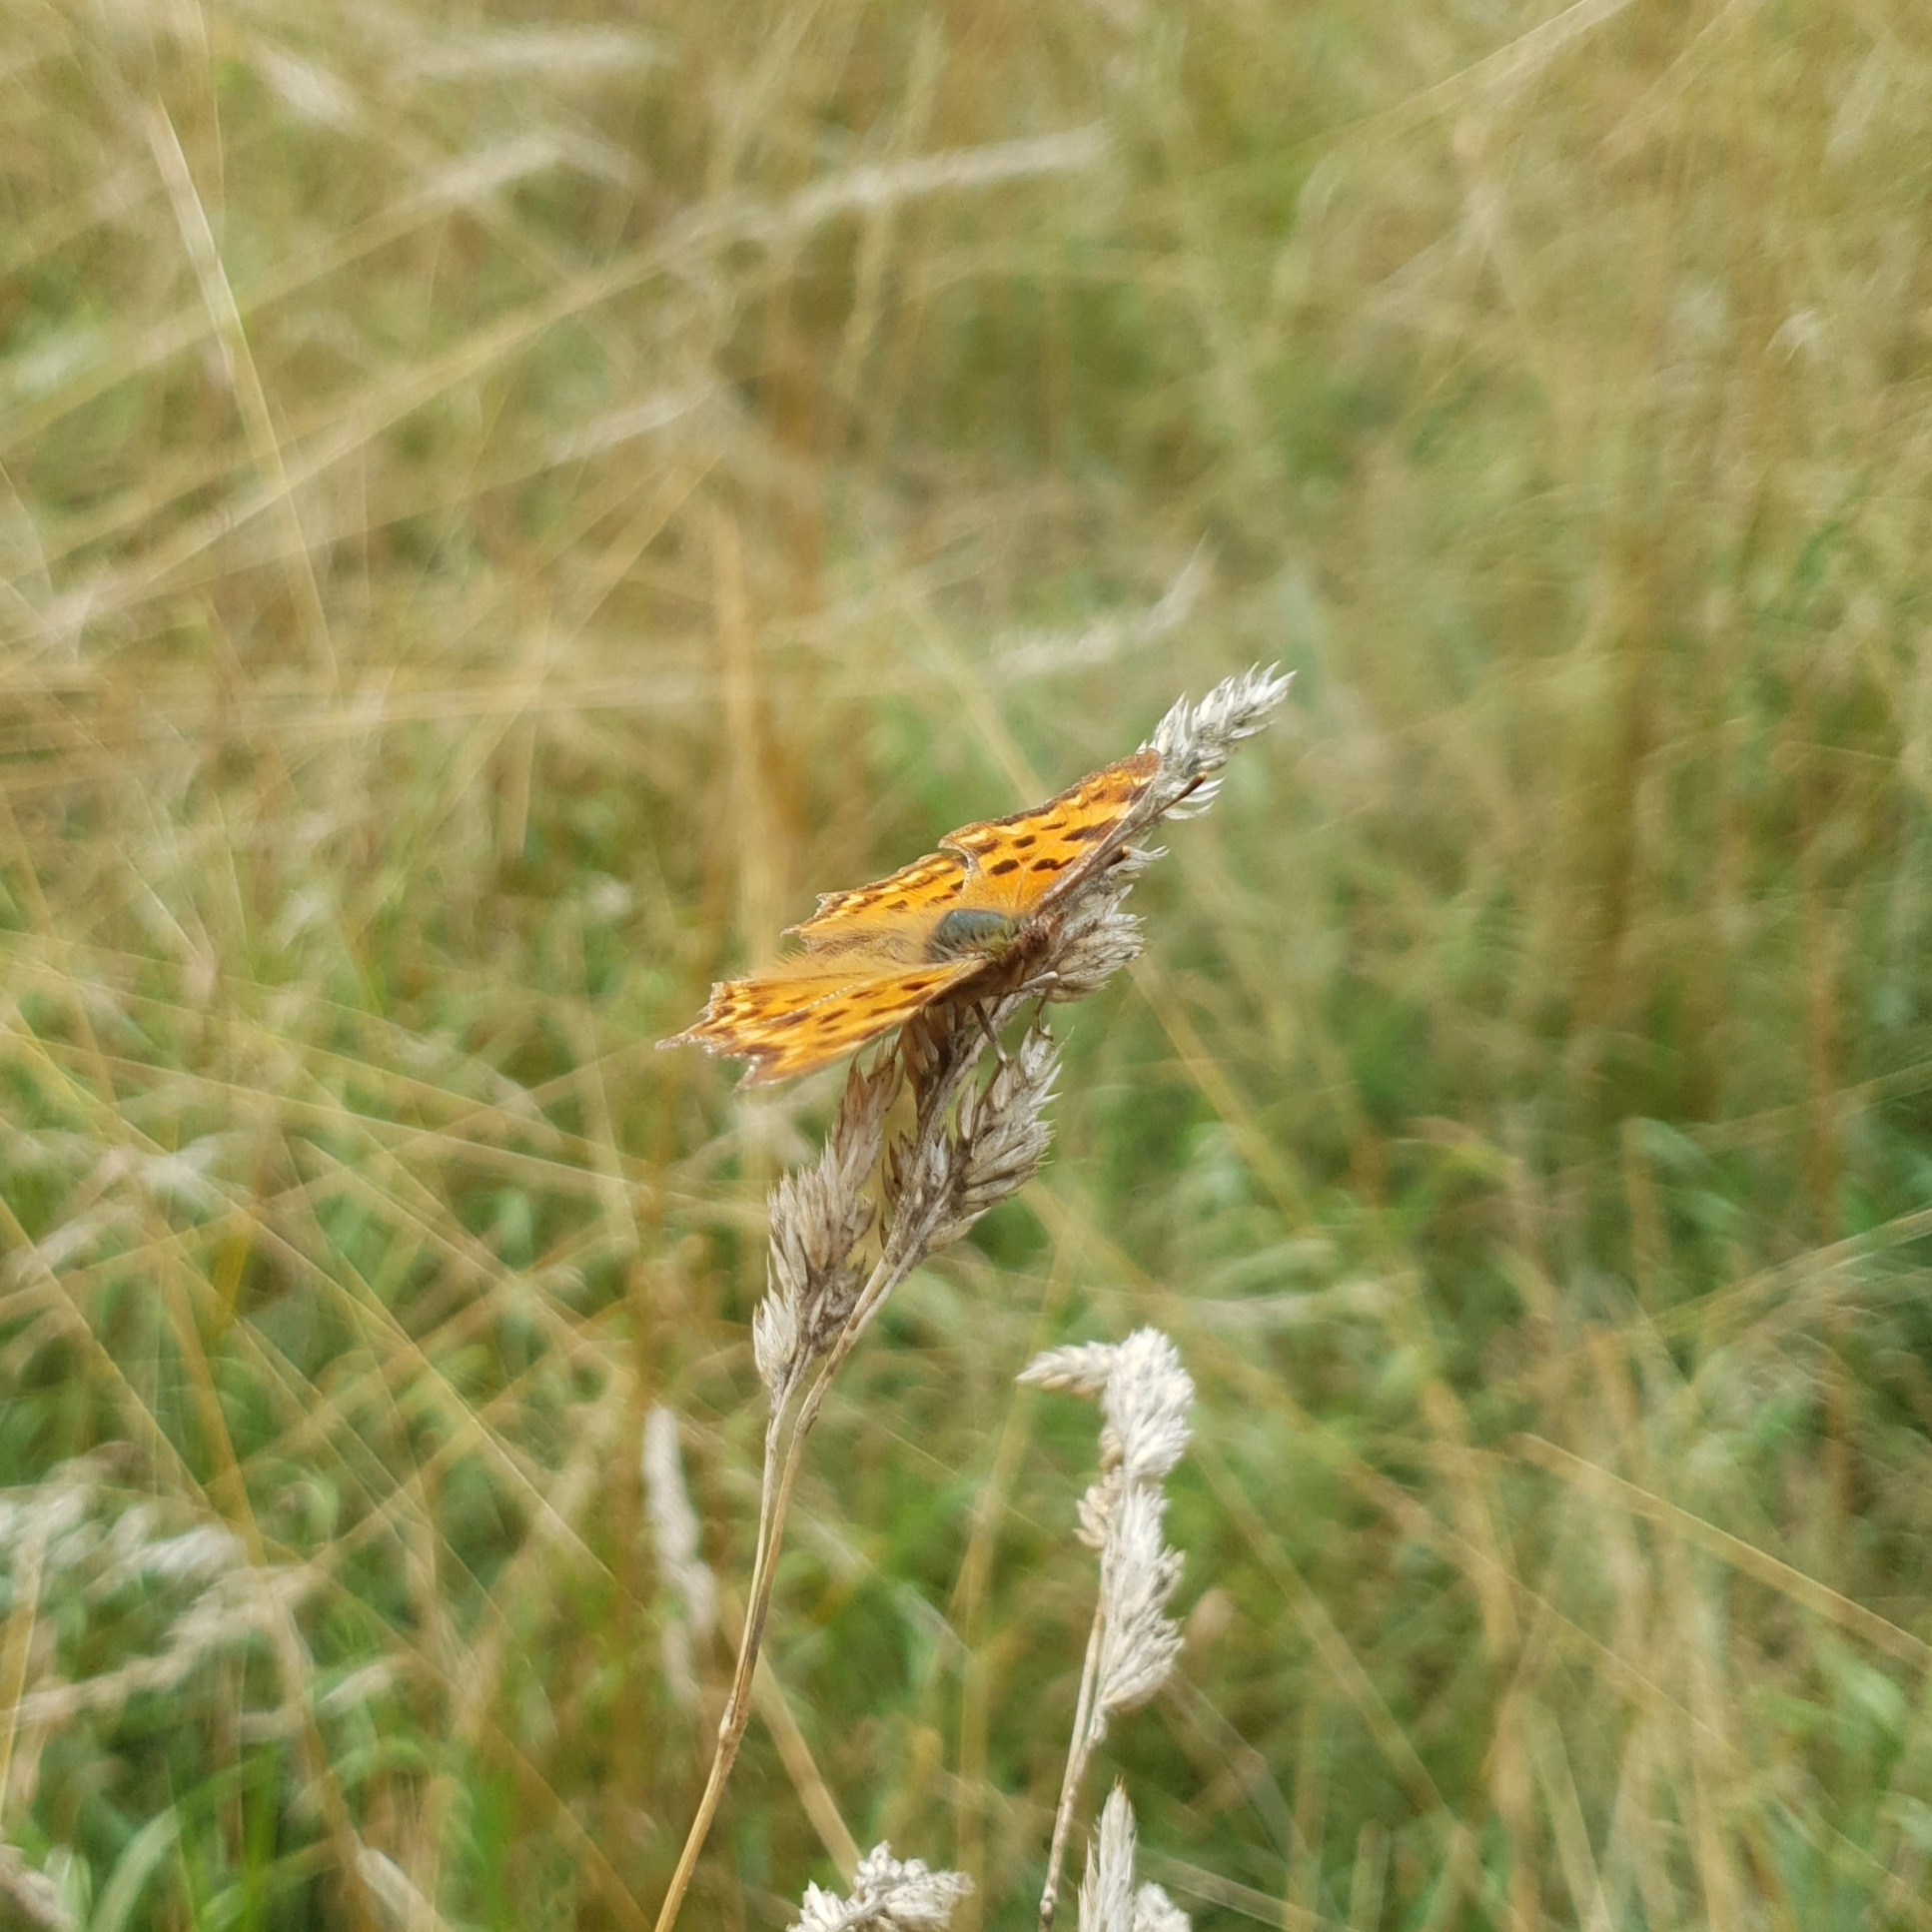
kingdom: Animalia
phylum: Arthropoda
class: Insecta
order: Lepidoptera
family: Nymphalidae
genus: Polygonia
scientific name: Polygonia c-album
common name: Comma
